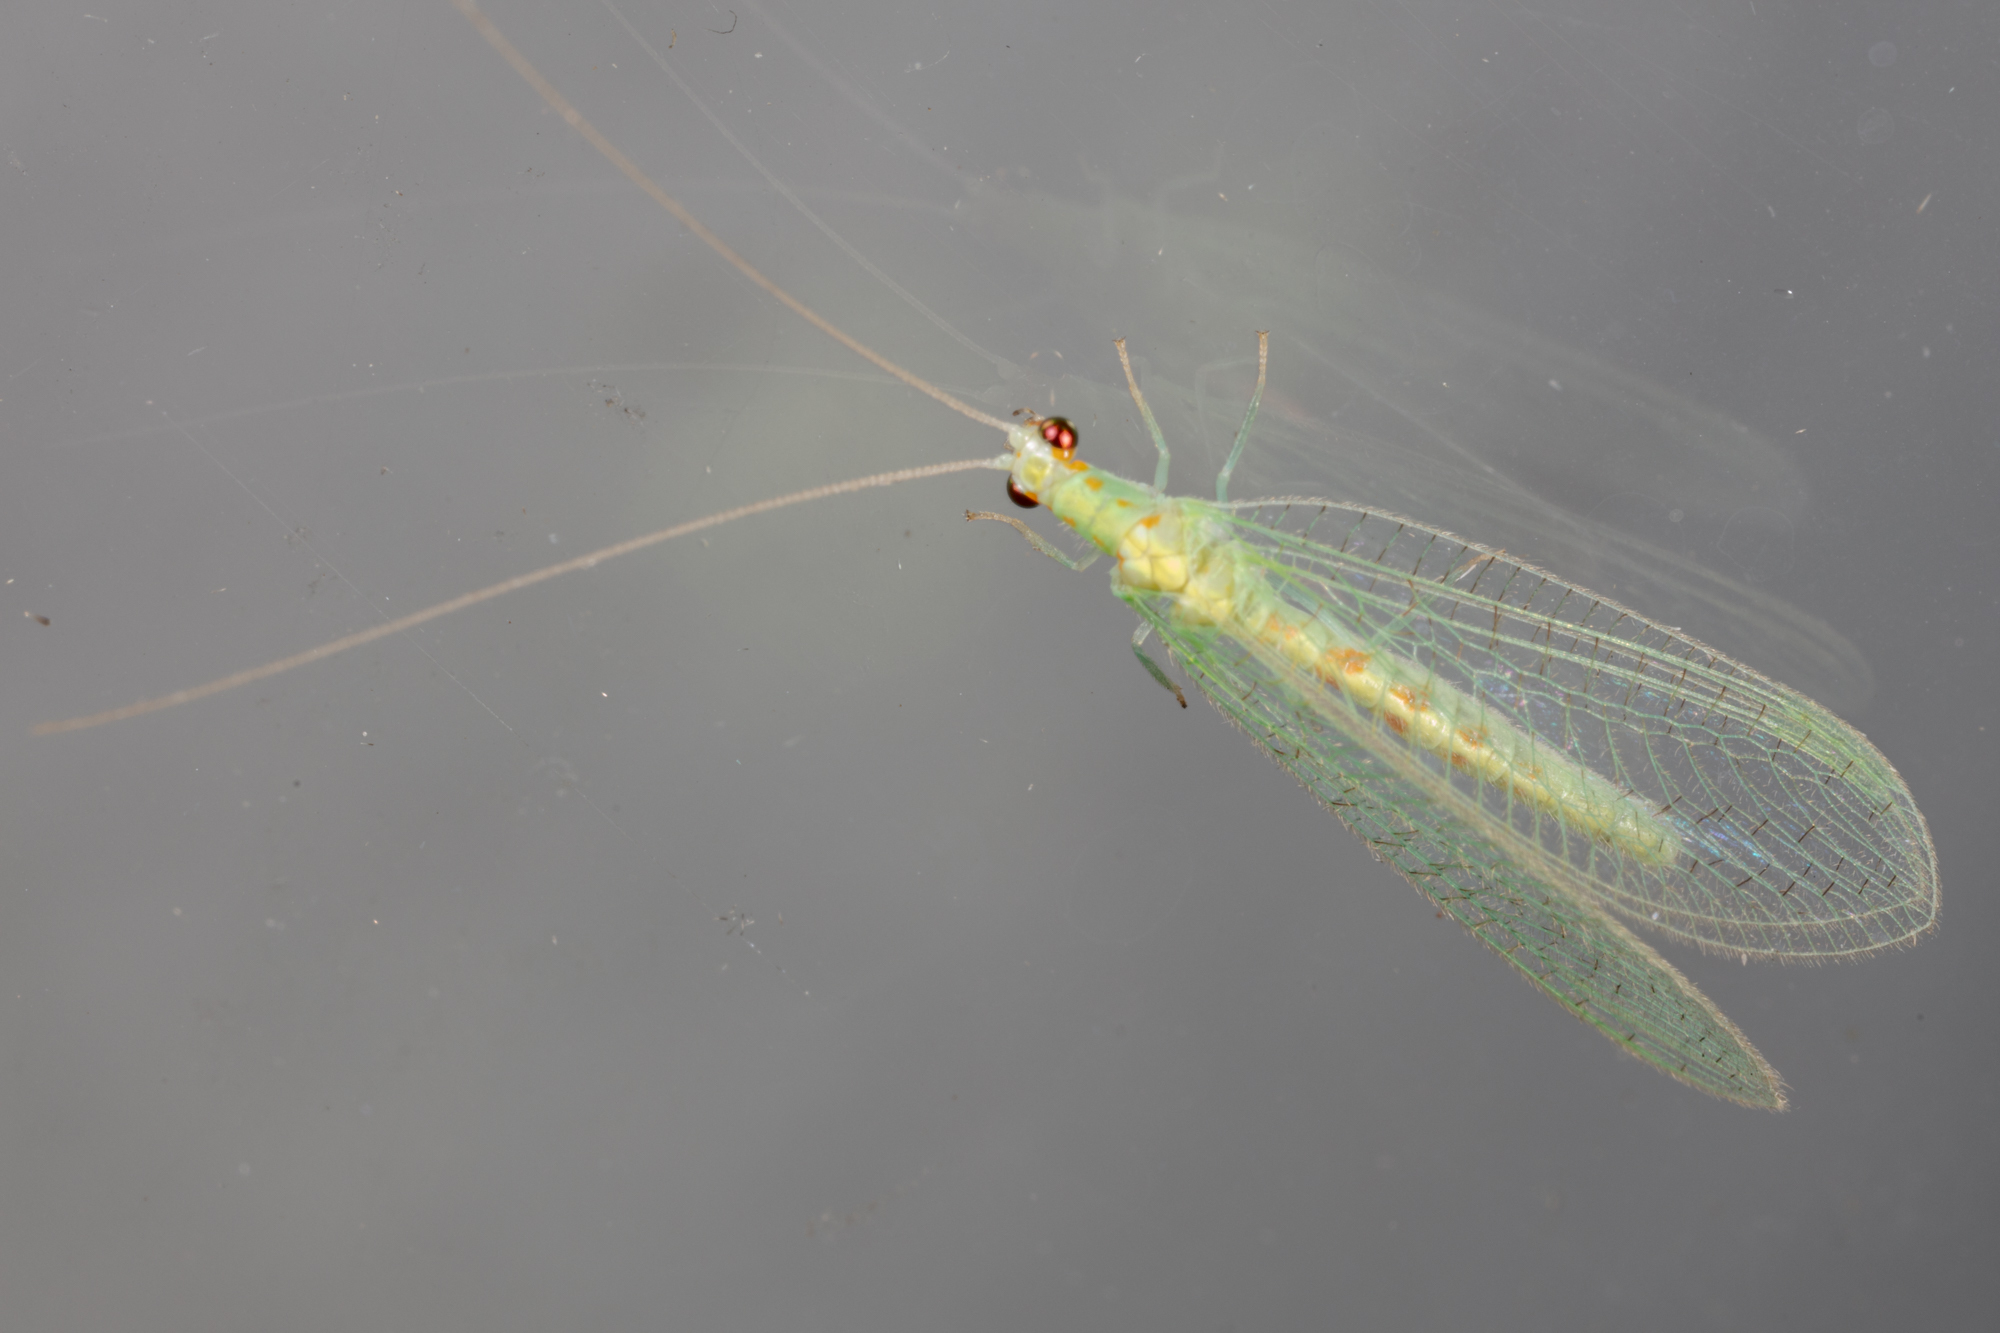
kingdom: Animalia
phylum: Arthropoda
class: Insecta
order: Neuroptera
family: Chrysopidae
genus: Chrysopa
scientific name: Chrysopa quadripunctata
